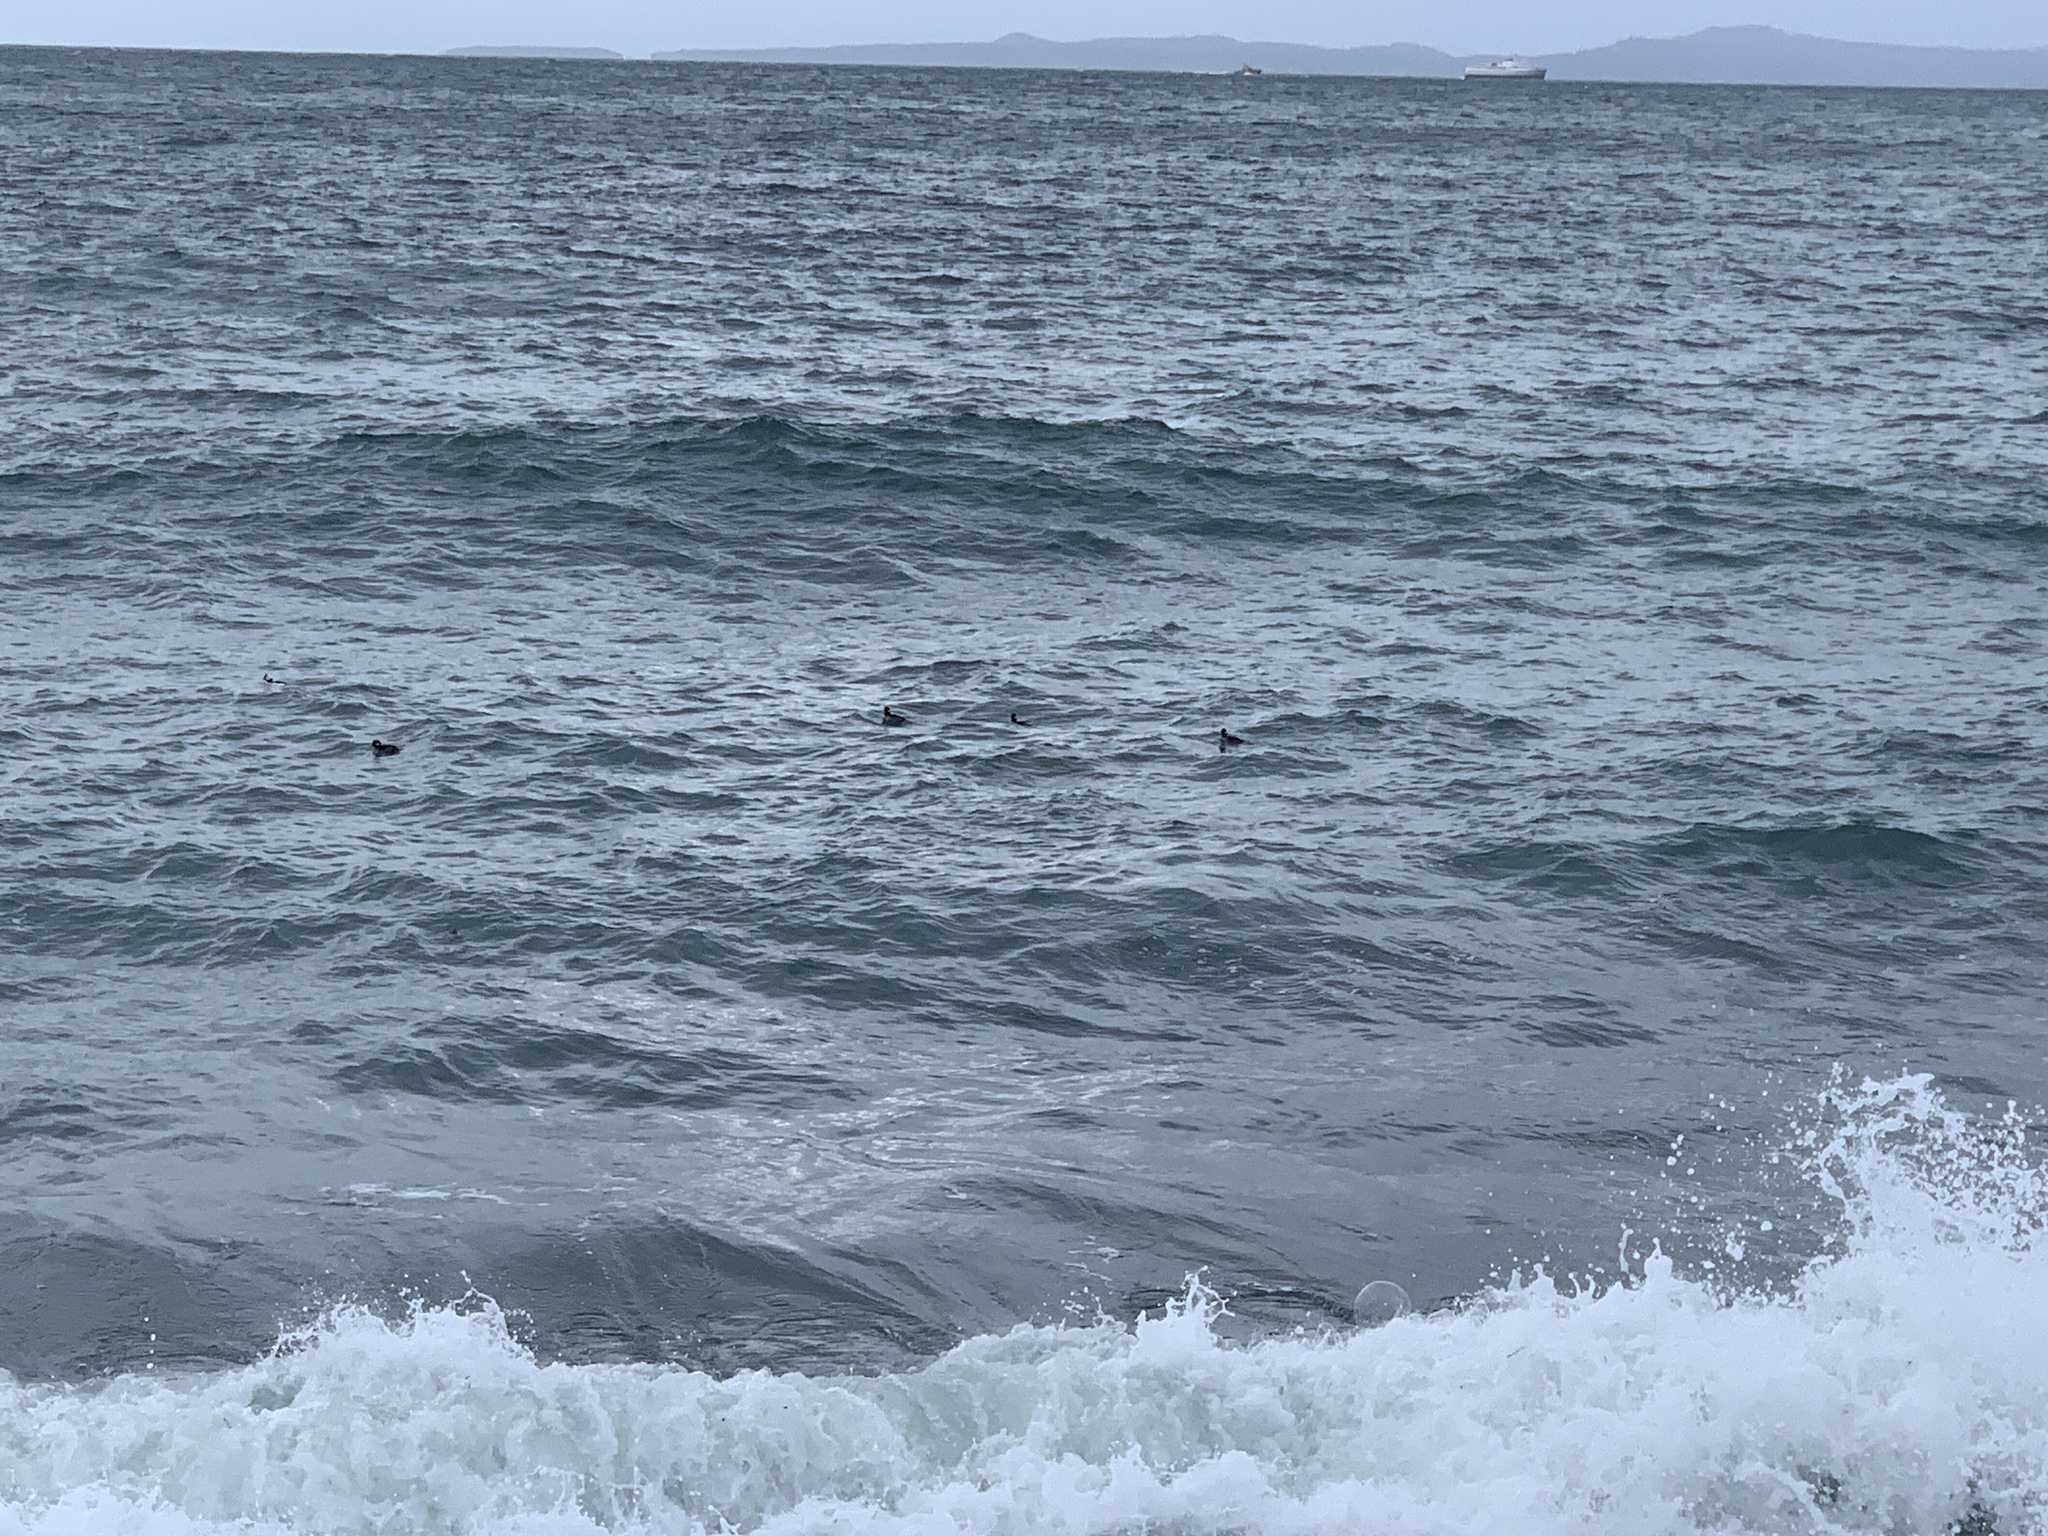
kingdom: Animalia
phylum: Chordata
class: Aves
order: Anseriformes
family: Anatidae
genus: Bucephala
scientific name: Bucephala albeola
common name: Bufflehead
